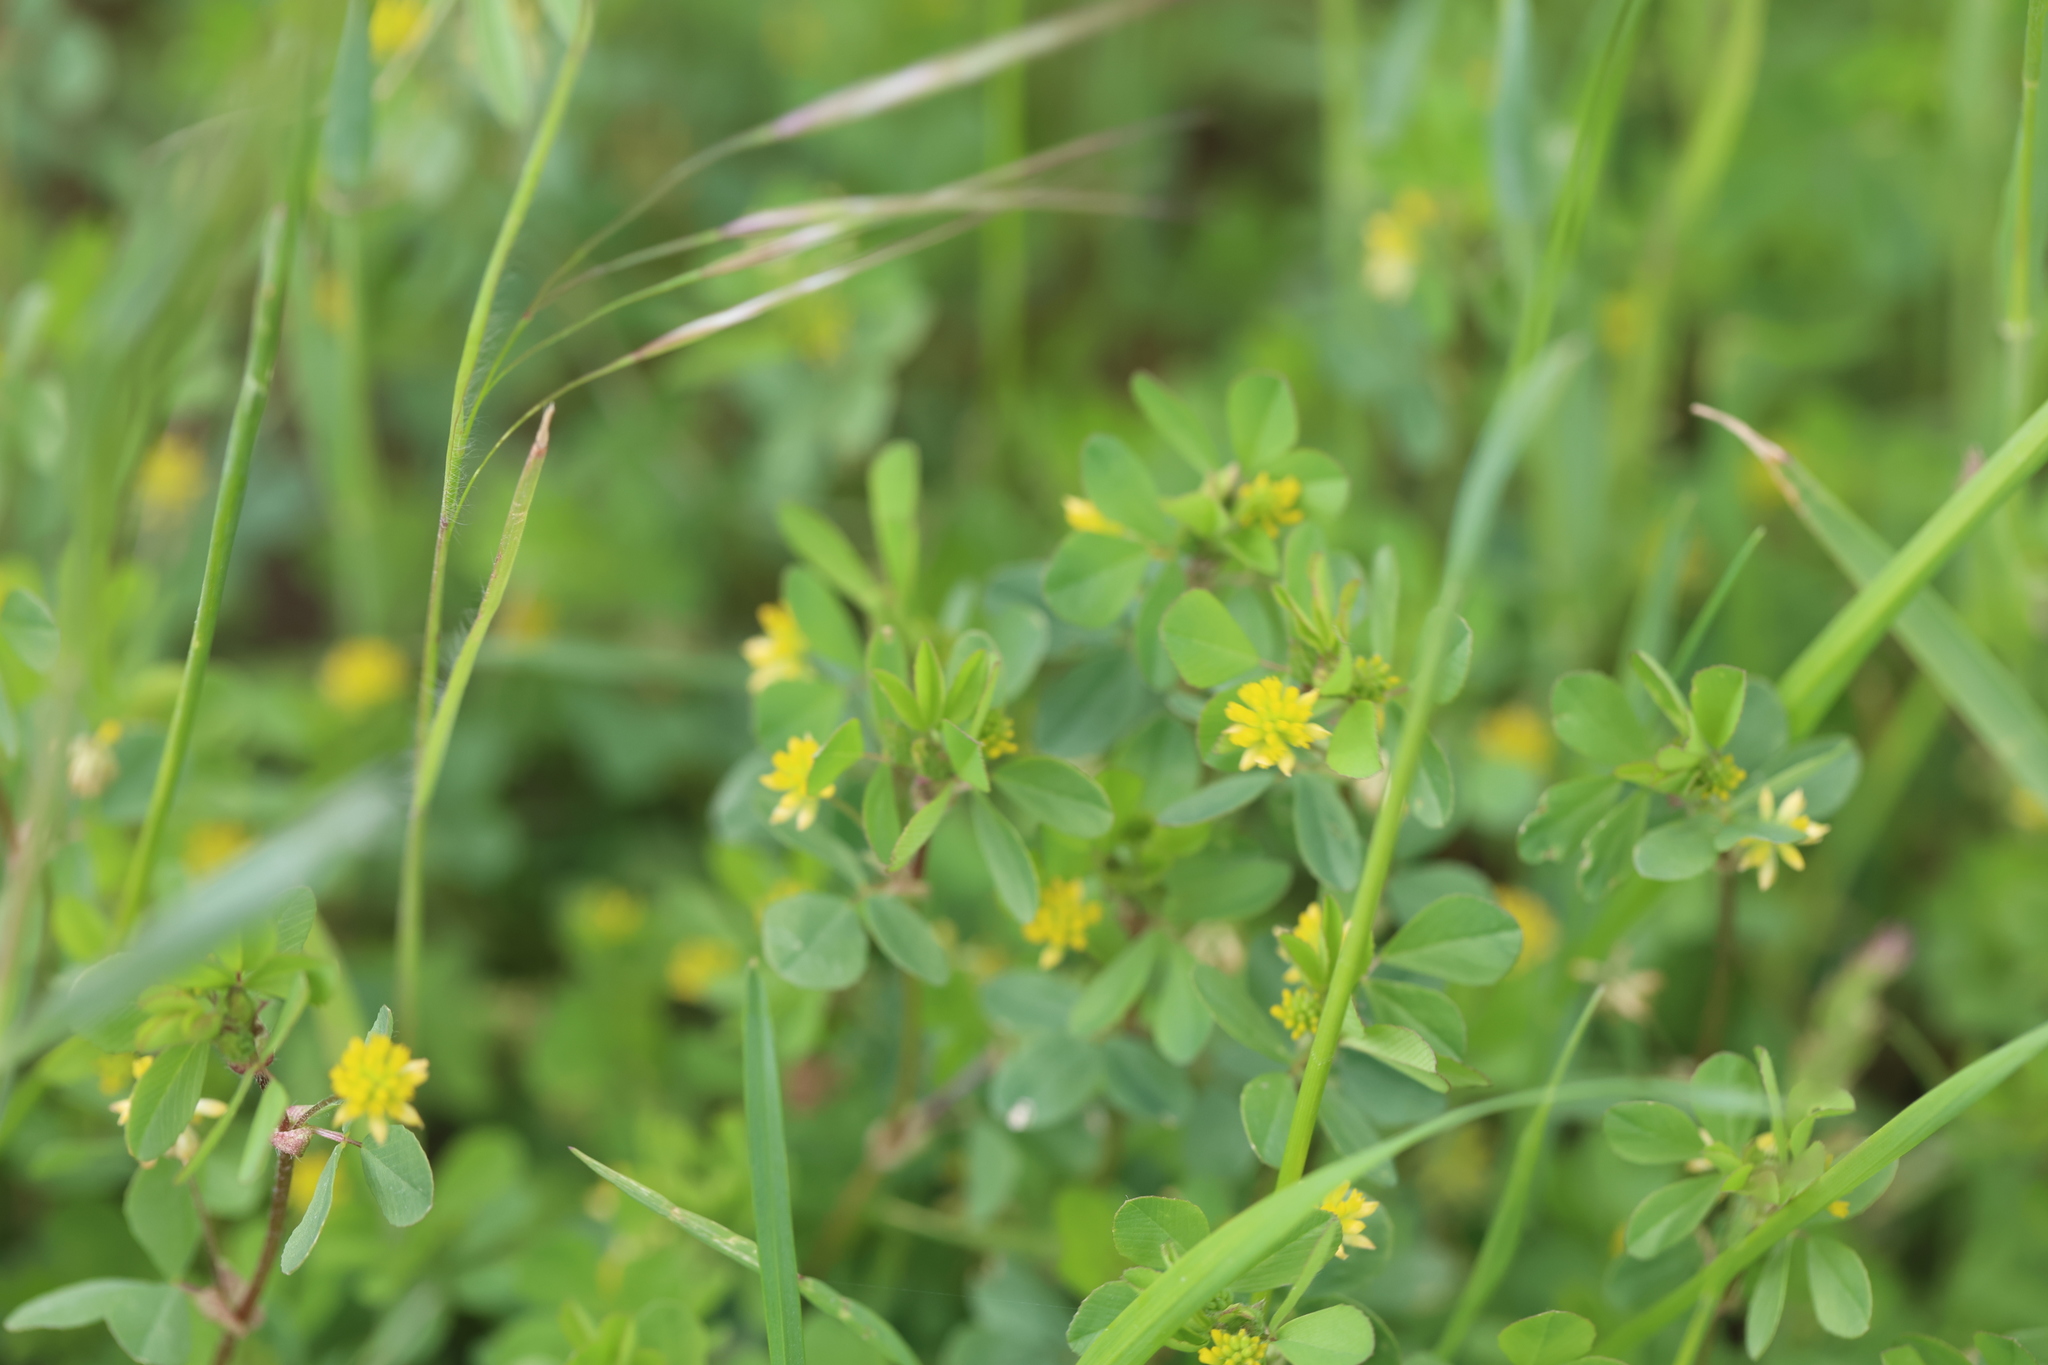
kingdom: Plantae
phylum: Tracheophyta
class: Magnoliopsida
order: Fabales
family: Fabaceae
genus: Trifolium
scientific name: Trifolium dubium
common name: Suckling clover
